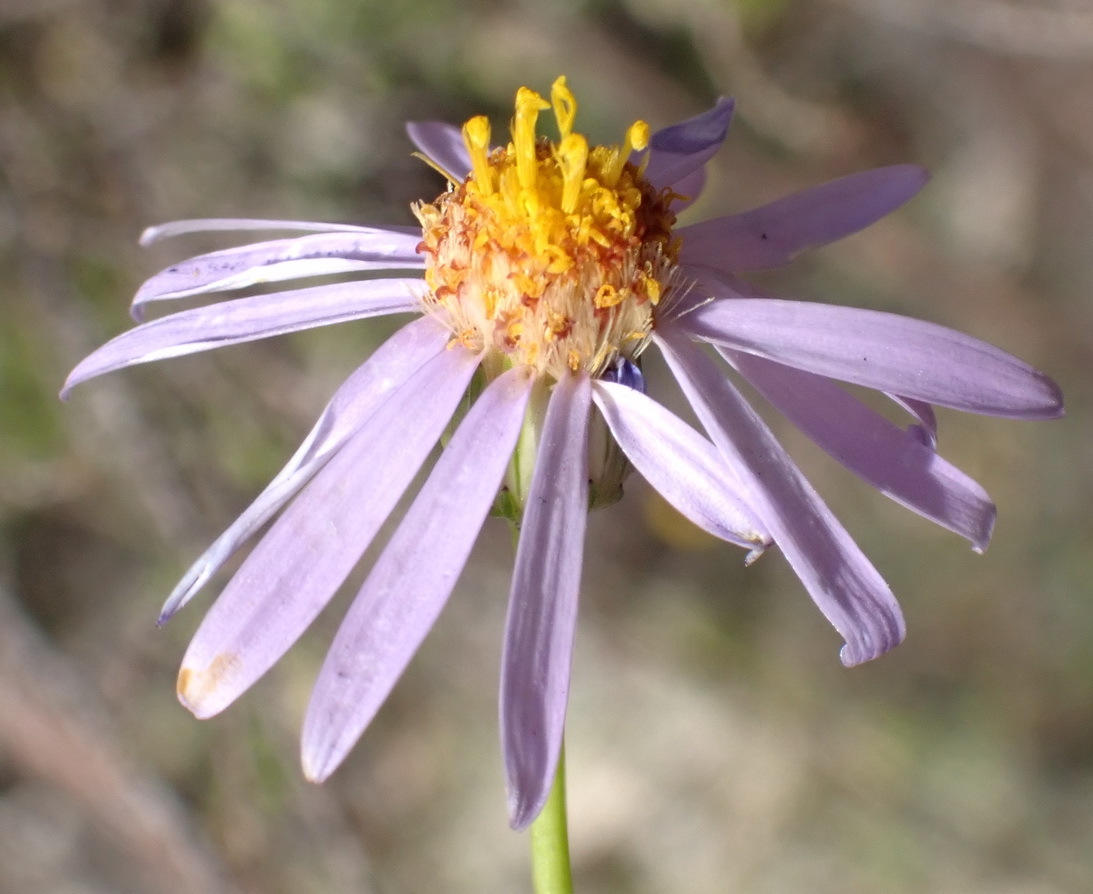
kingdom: Plantae
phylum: Tracheophyta
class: Magnoliopsida
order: Asterales
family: Asteraceae
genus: Felicia
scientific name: Felicia filifolia
